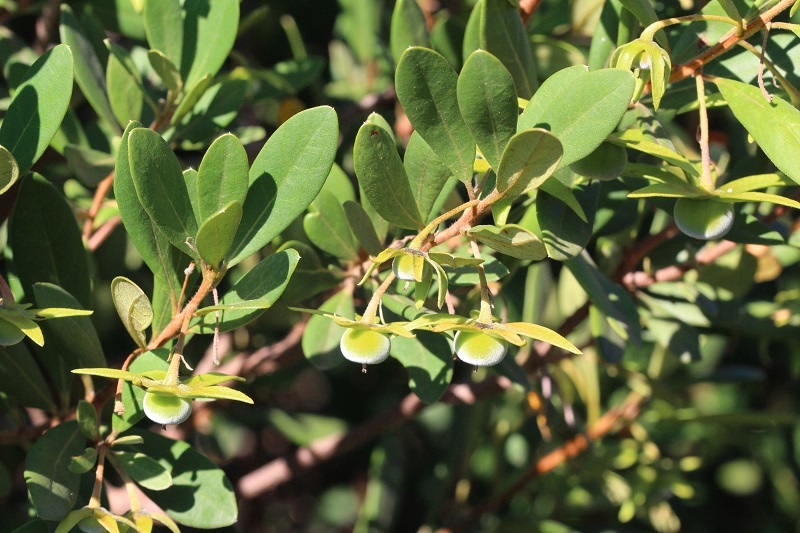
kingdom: Plantae
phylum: Tracheophyta
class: Magnoliopsida
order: Ericales
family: Ebenaceae
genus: Diospyros
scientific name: Diospyros dichrophylla
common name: Common star-apple
